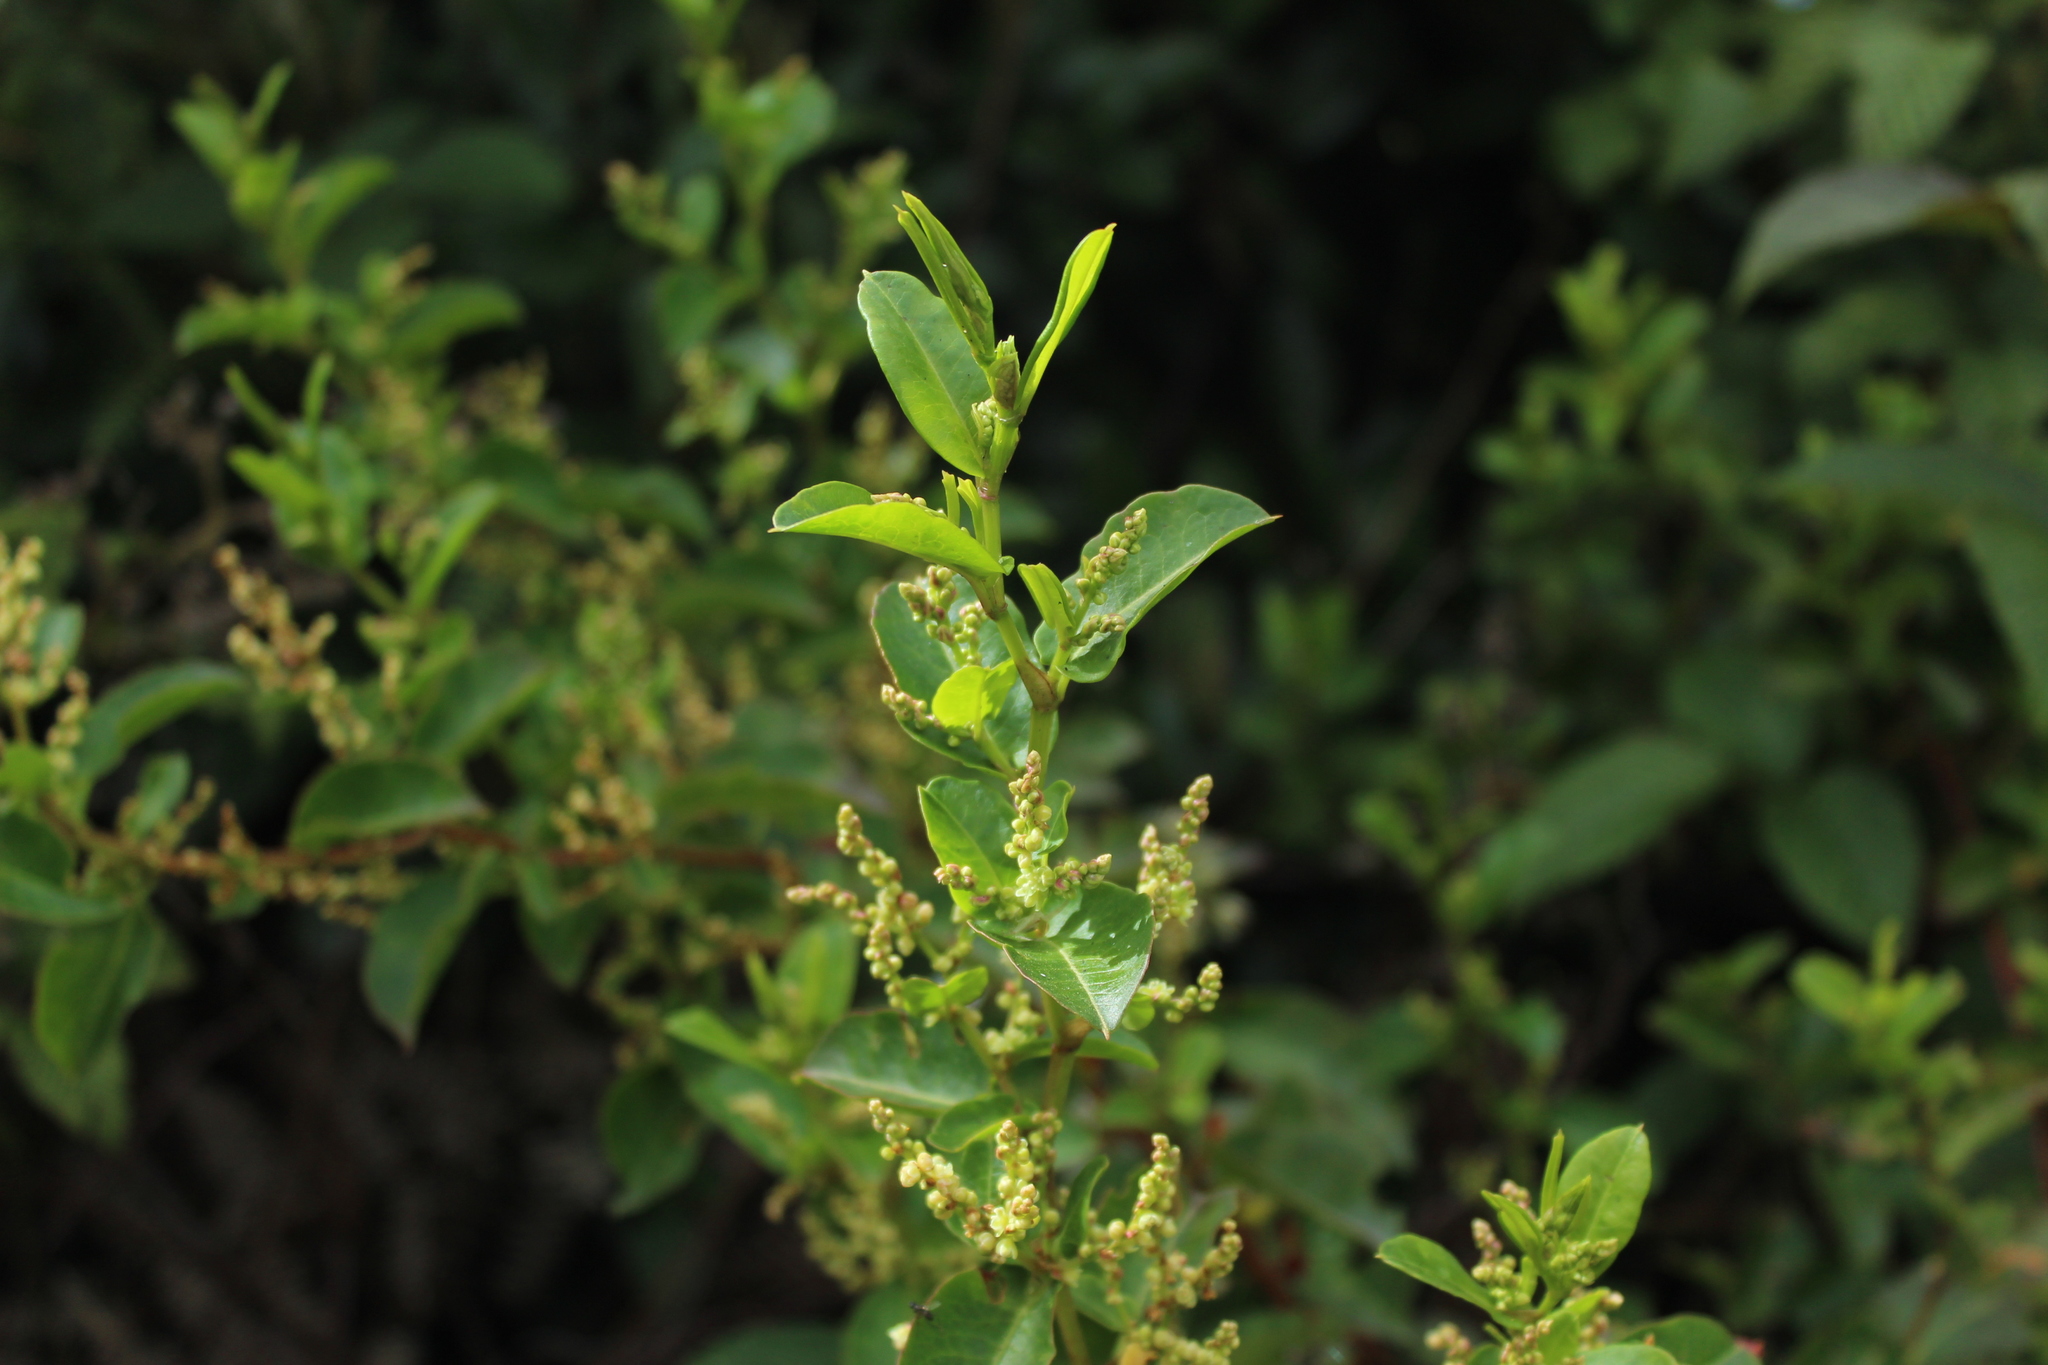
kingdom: Plantae
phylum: Tracheophyta
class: Magnoliopsida
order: Caryophyllales
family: Polygonaceae
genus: Muehlenbeckia
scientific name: Muehlenbeckia tamnifolia
